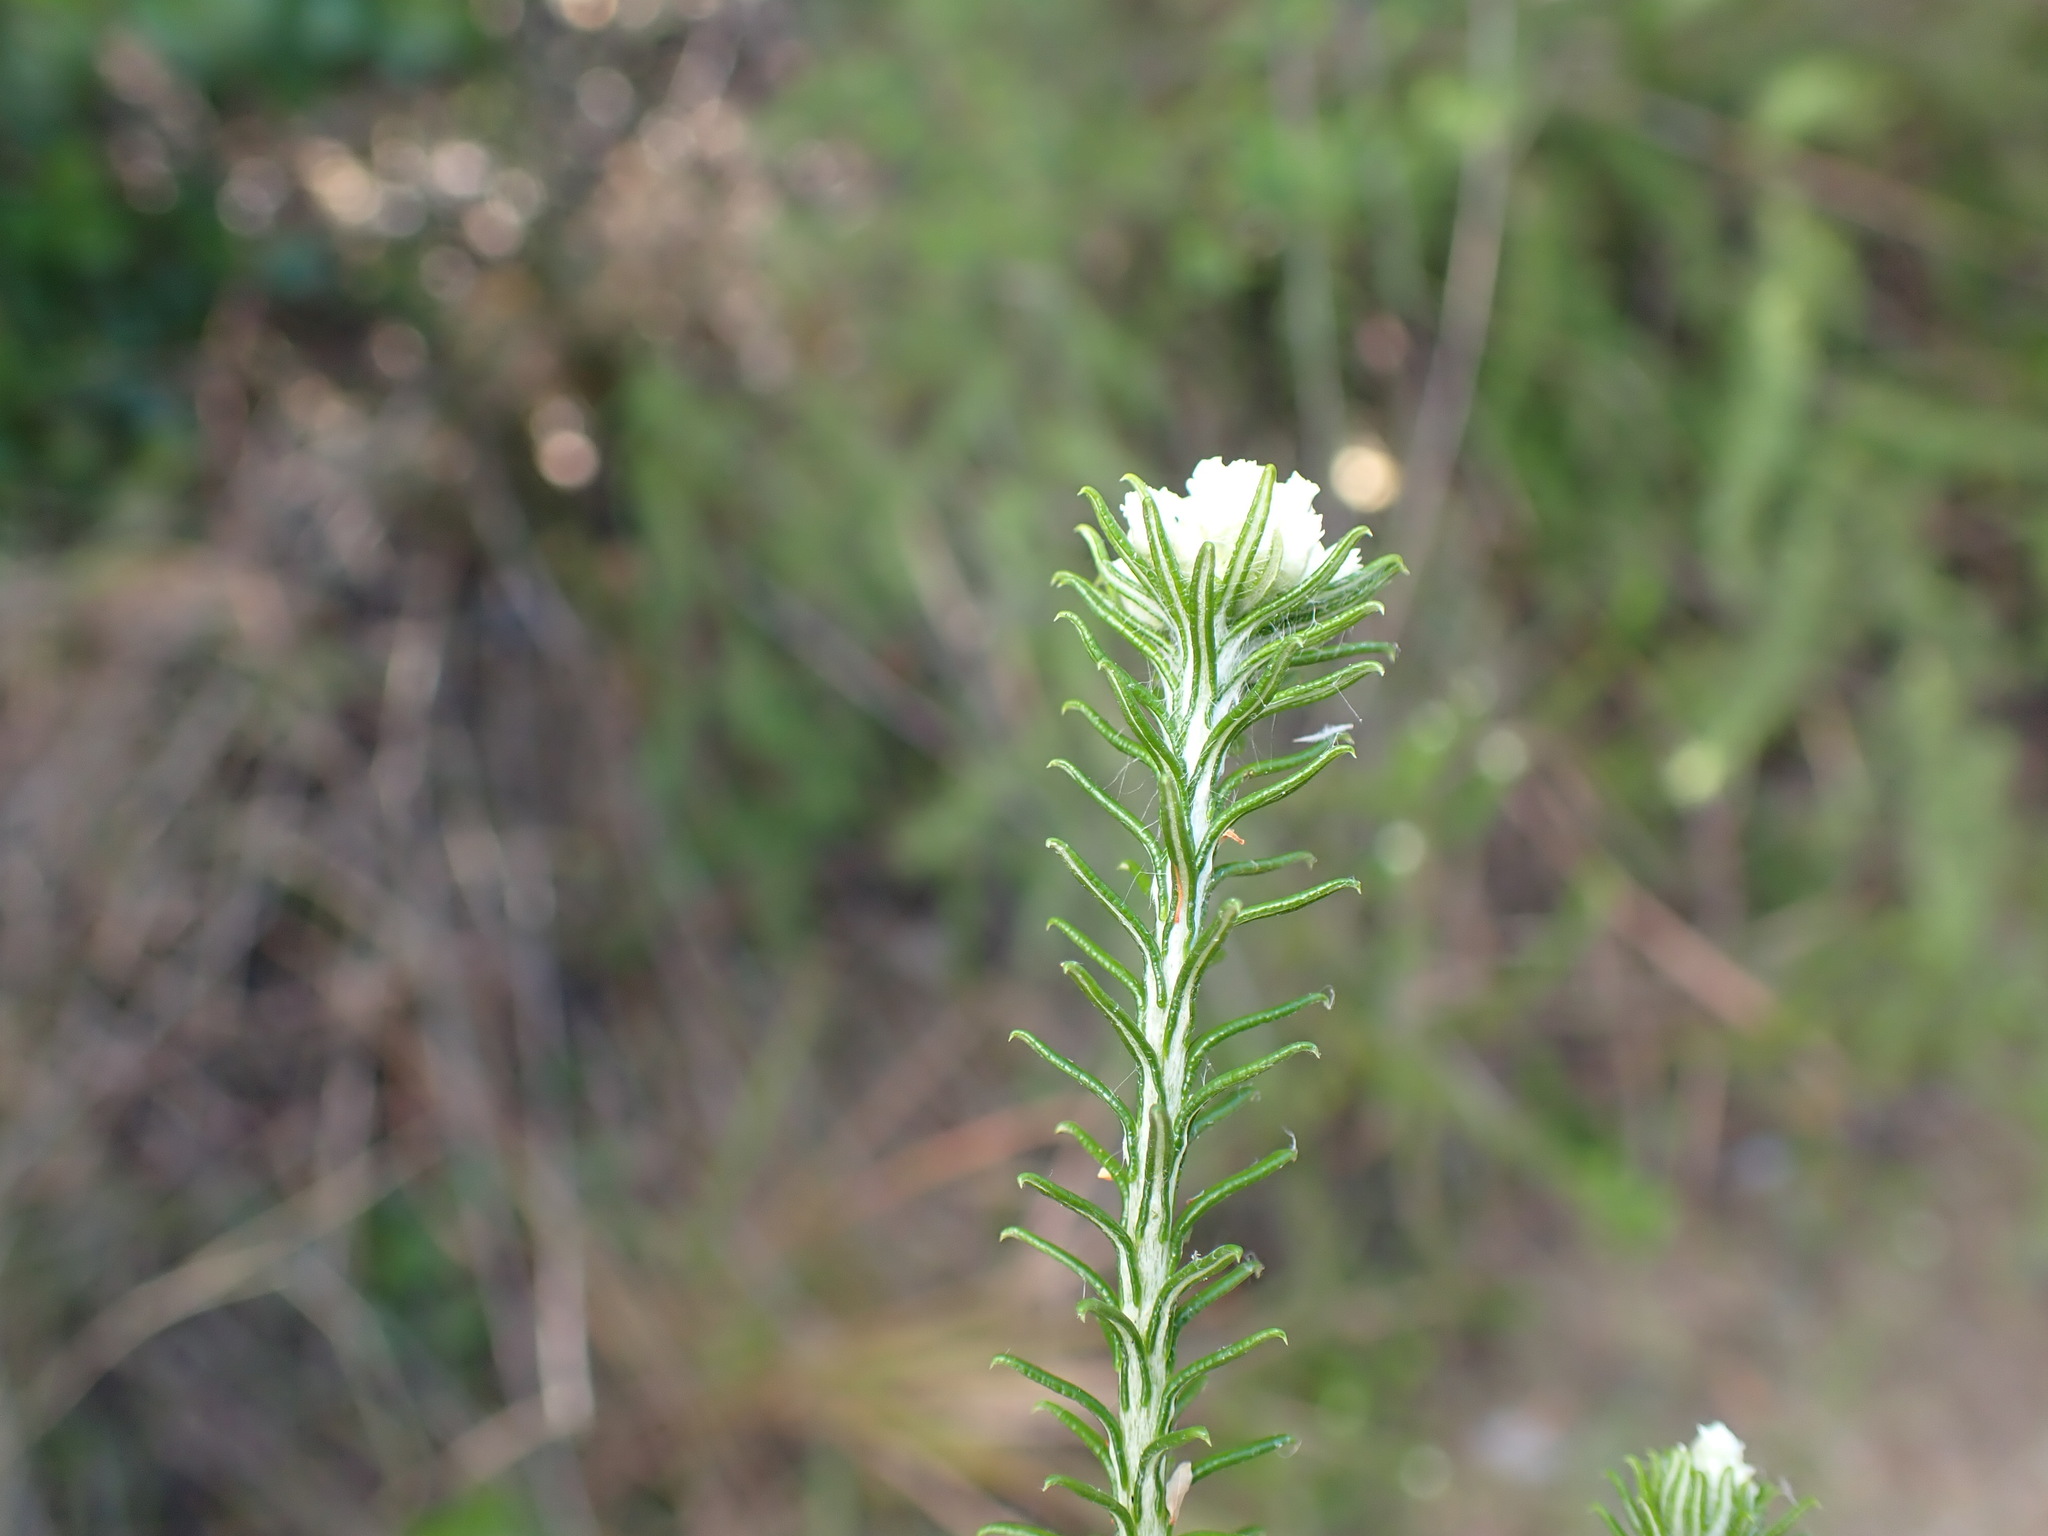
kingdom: Plantae
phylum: Tracheophyta
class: Magnoliopsida
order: Asterales
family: Asteraceae
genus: Helichrysum
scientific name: Helichrysum teretifolium
